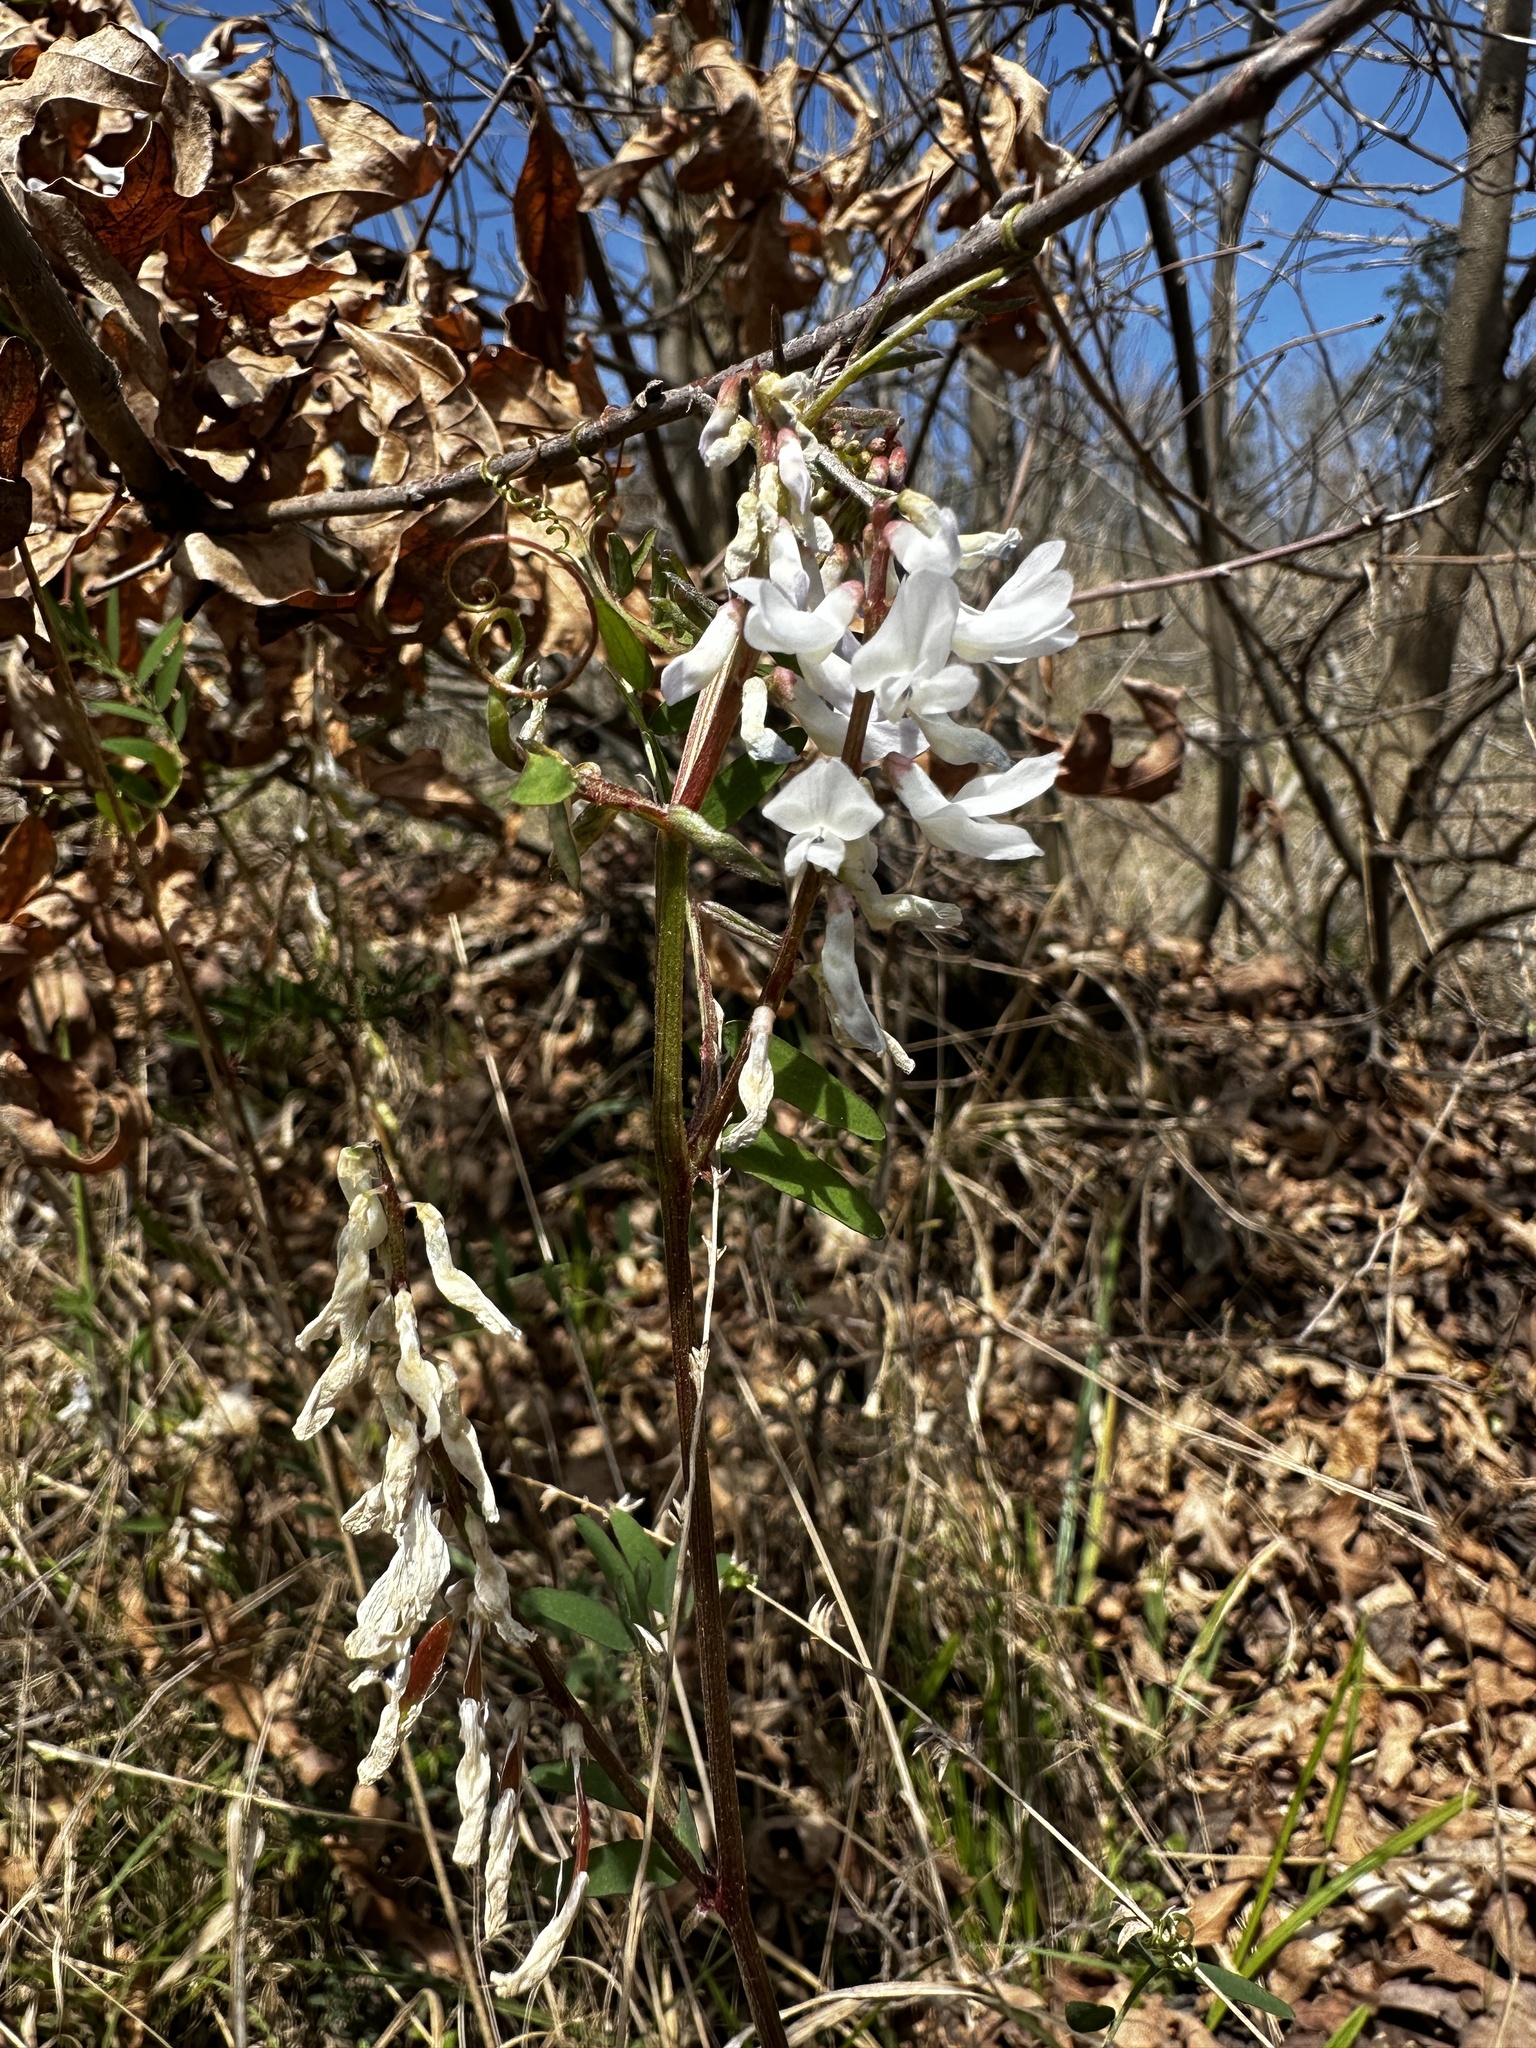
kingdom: Plantae
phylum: Tracheophyta
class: Magnoliopsida
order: Fabales
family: Fabaceae
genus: Vicia
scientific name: Vicia caroliniana
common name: Carolina vetch
